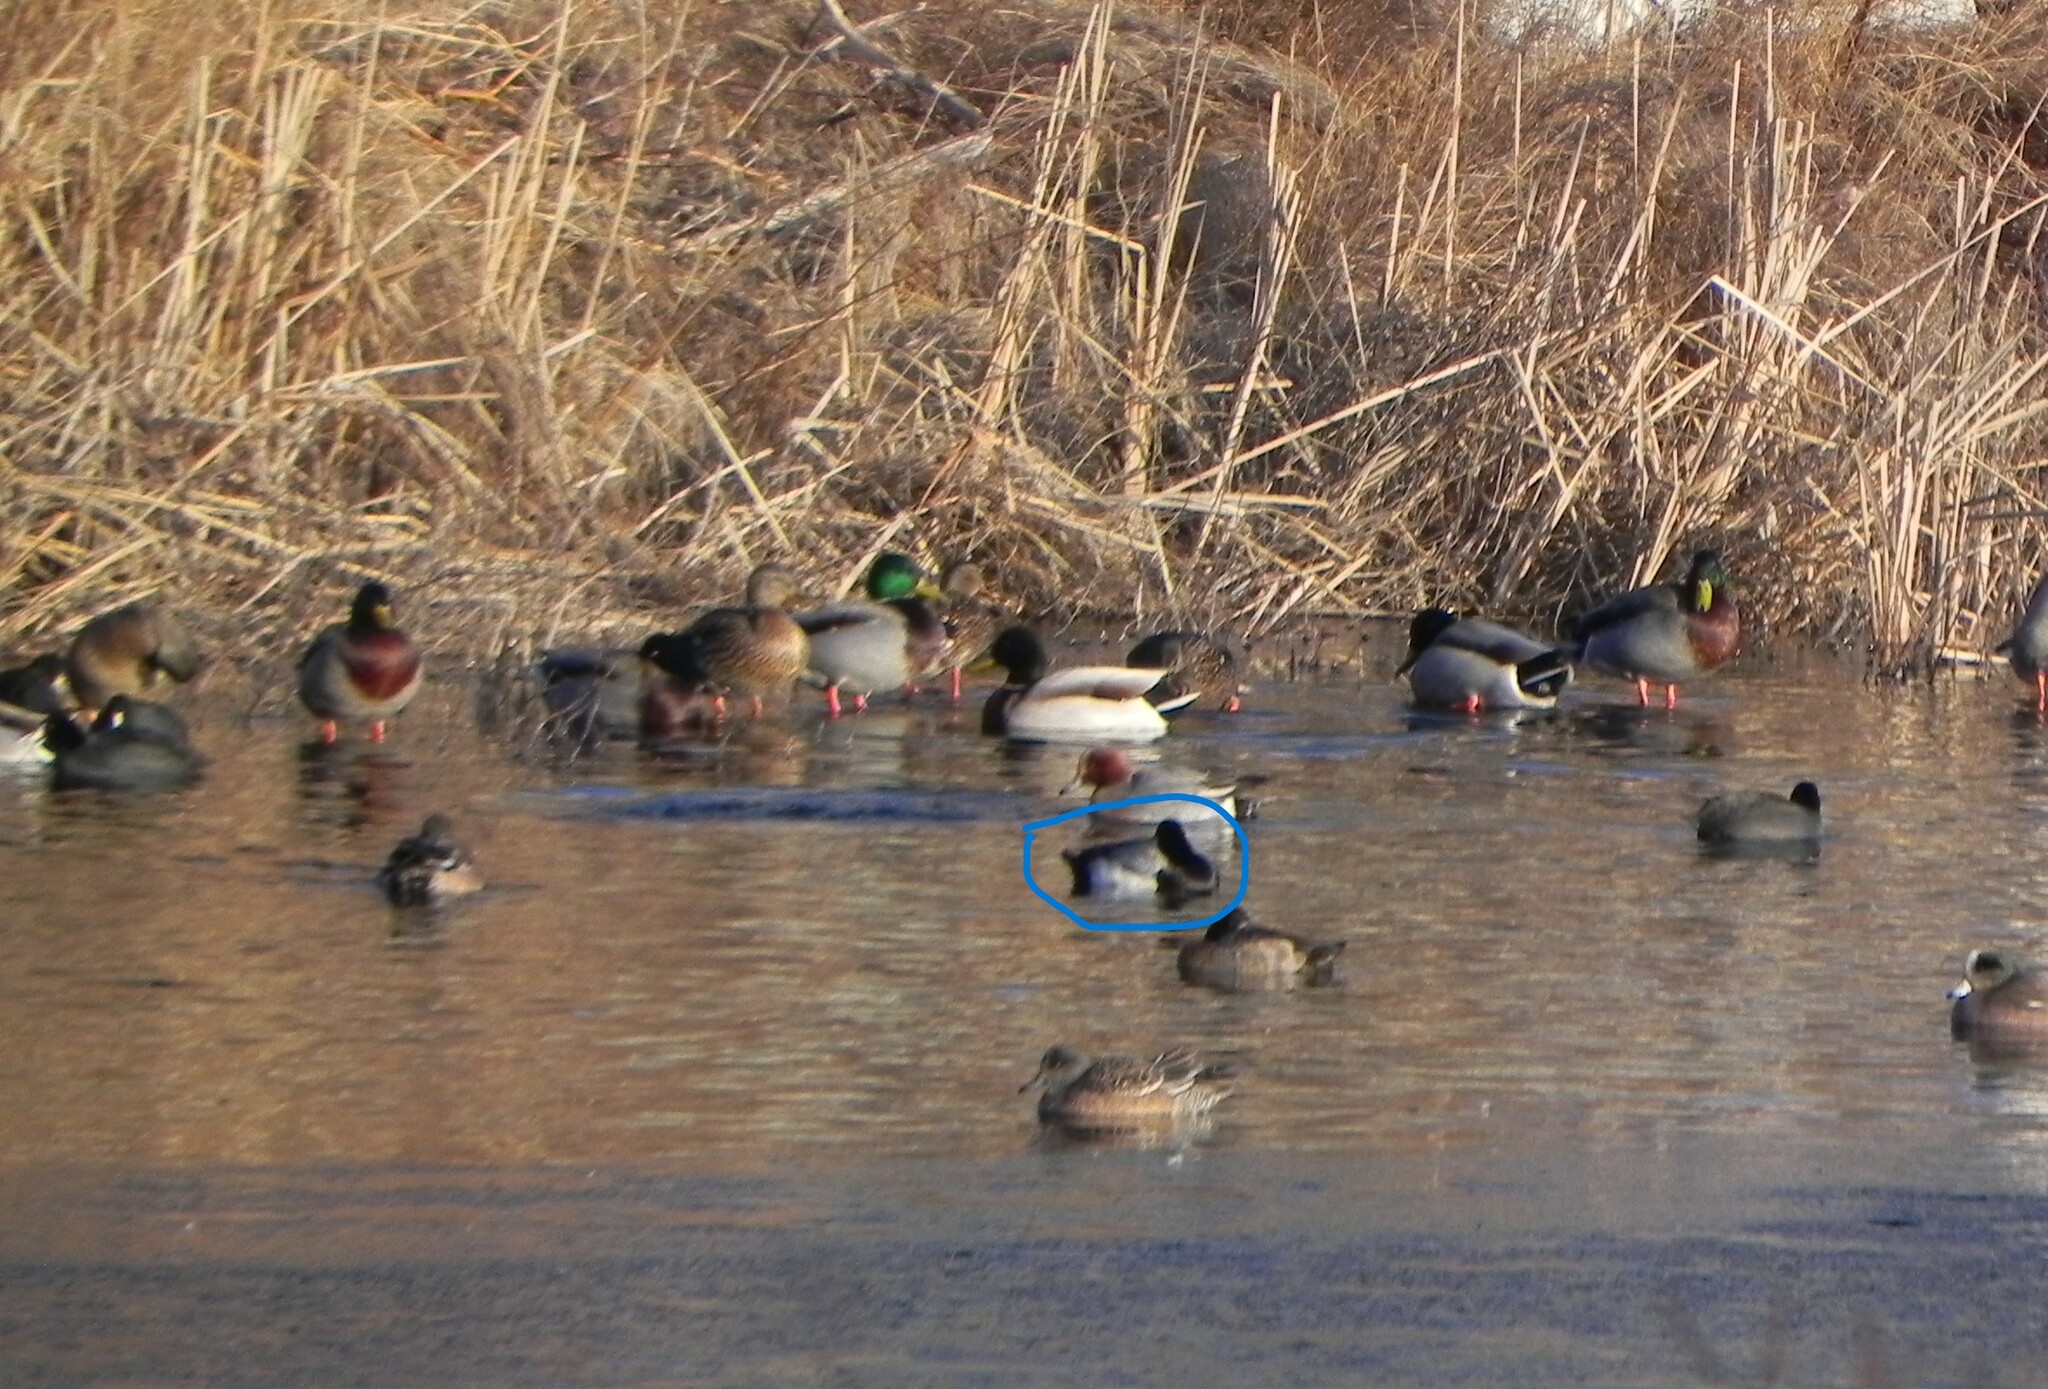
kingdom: Animalia
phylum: Chordata
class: Aves
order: Anseriformes
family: Anatidae
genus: Aythya
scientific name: Aythya affinis
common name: Lesser scaup
